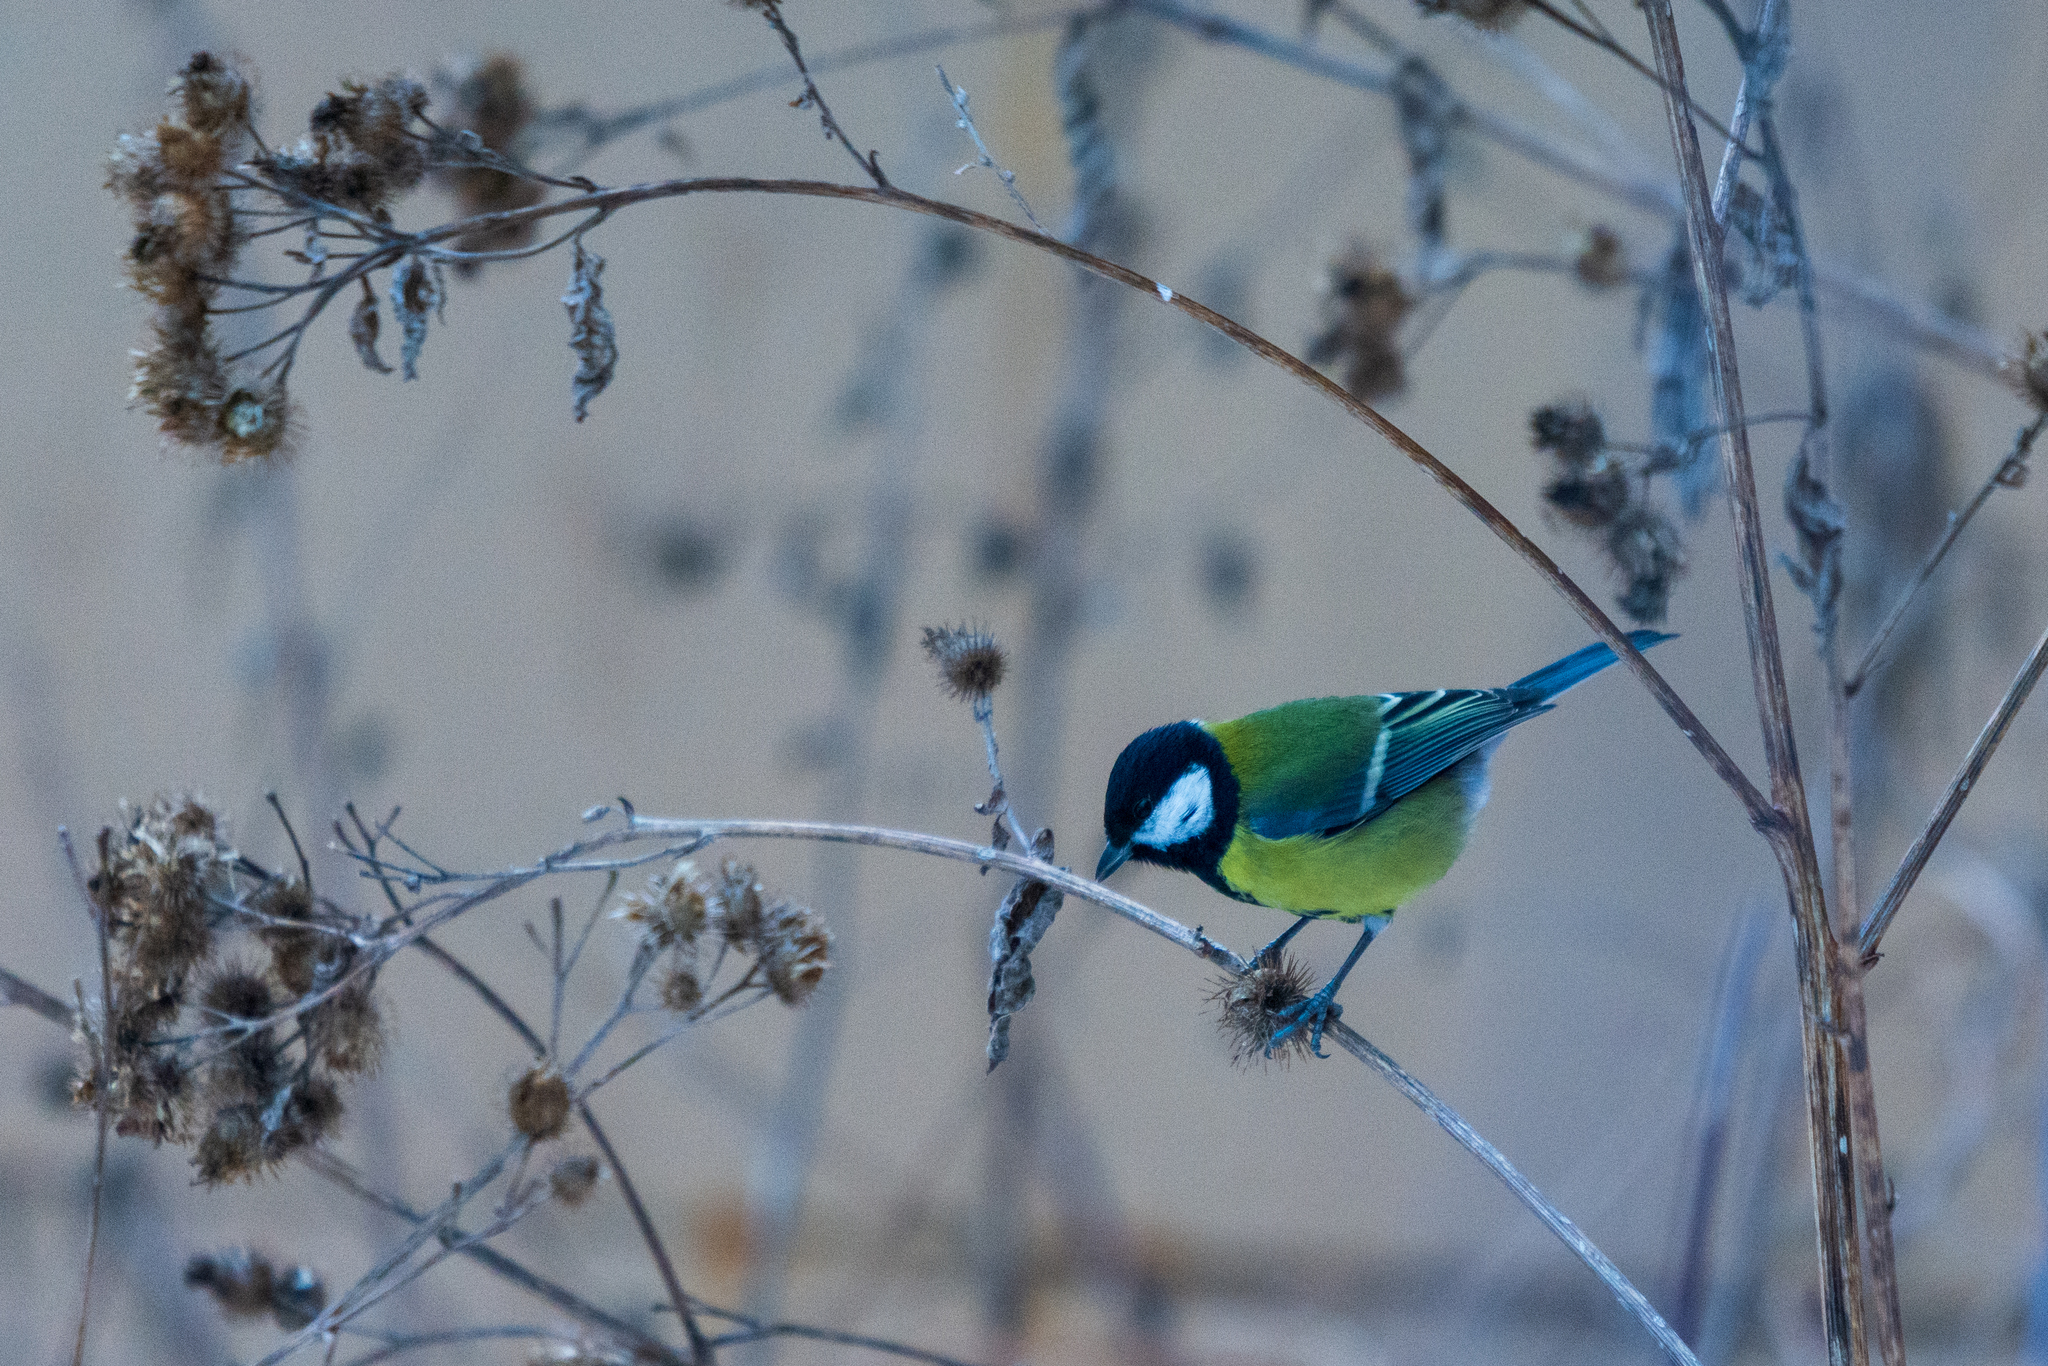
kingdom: Animalia
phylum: Chordata
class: Aves
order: Passeriformes
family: Paridae
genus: Parus
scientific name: Parus major
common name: Great tit
